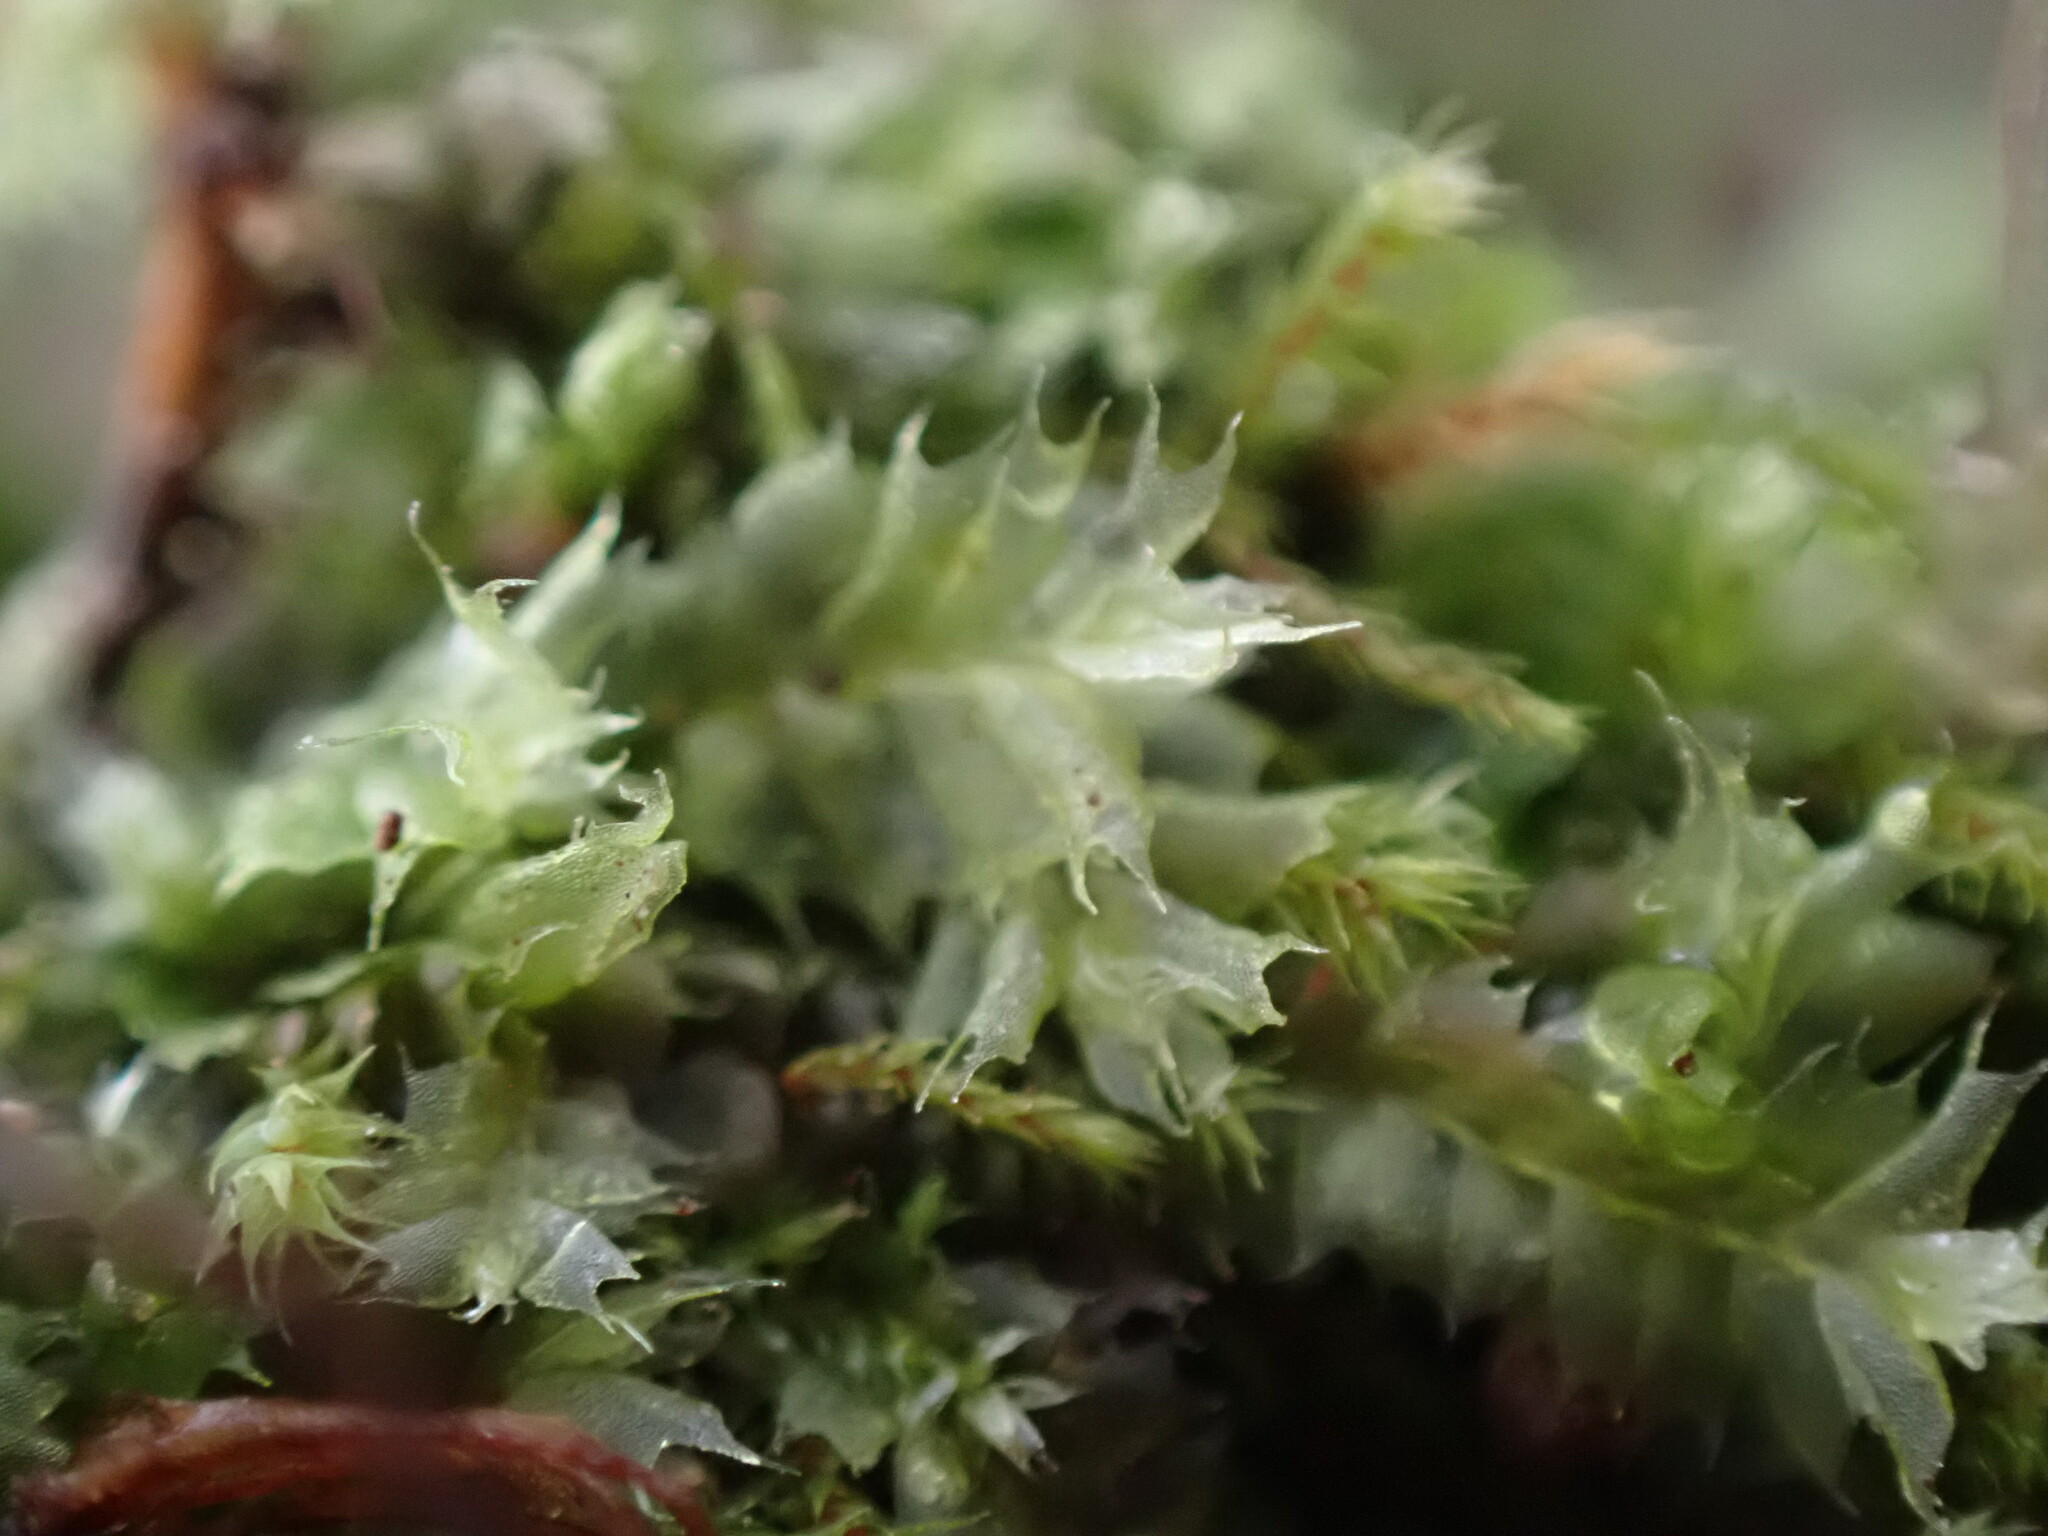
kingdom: Plantae
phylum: Marchantiophyta
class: Jungermanniopsida
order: Jungermanniales
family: Lophocoleaceae
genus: Lophocolea
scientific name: Lophocolea bidentata
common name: Bifid crestwort
